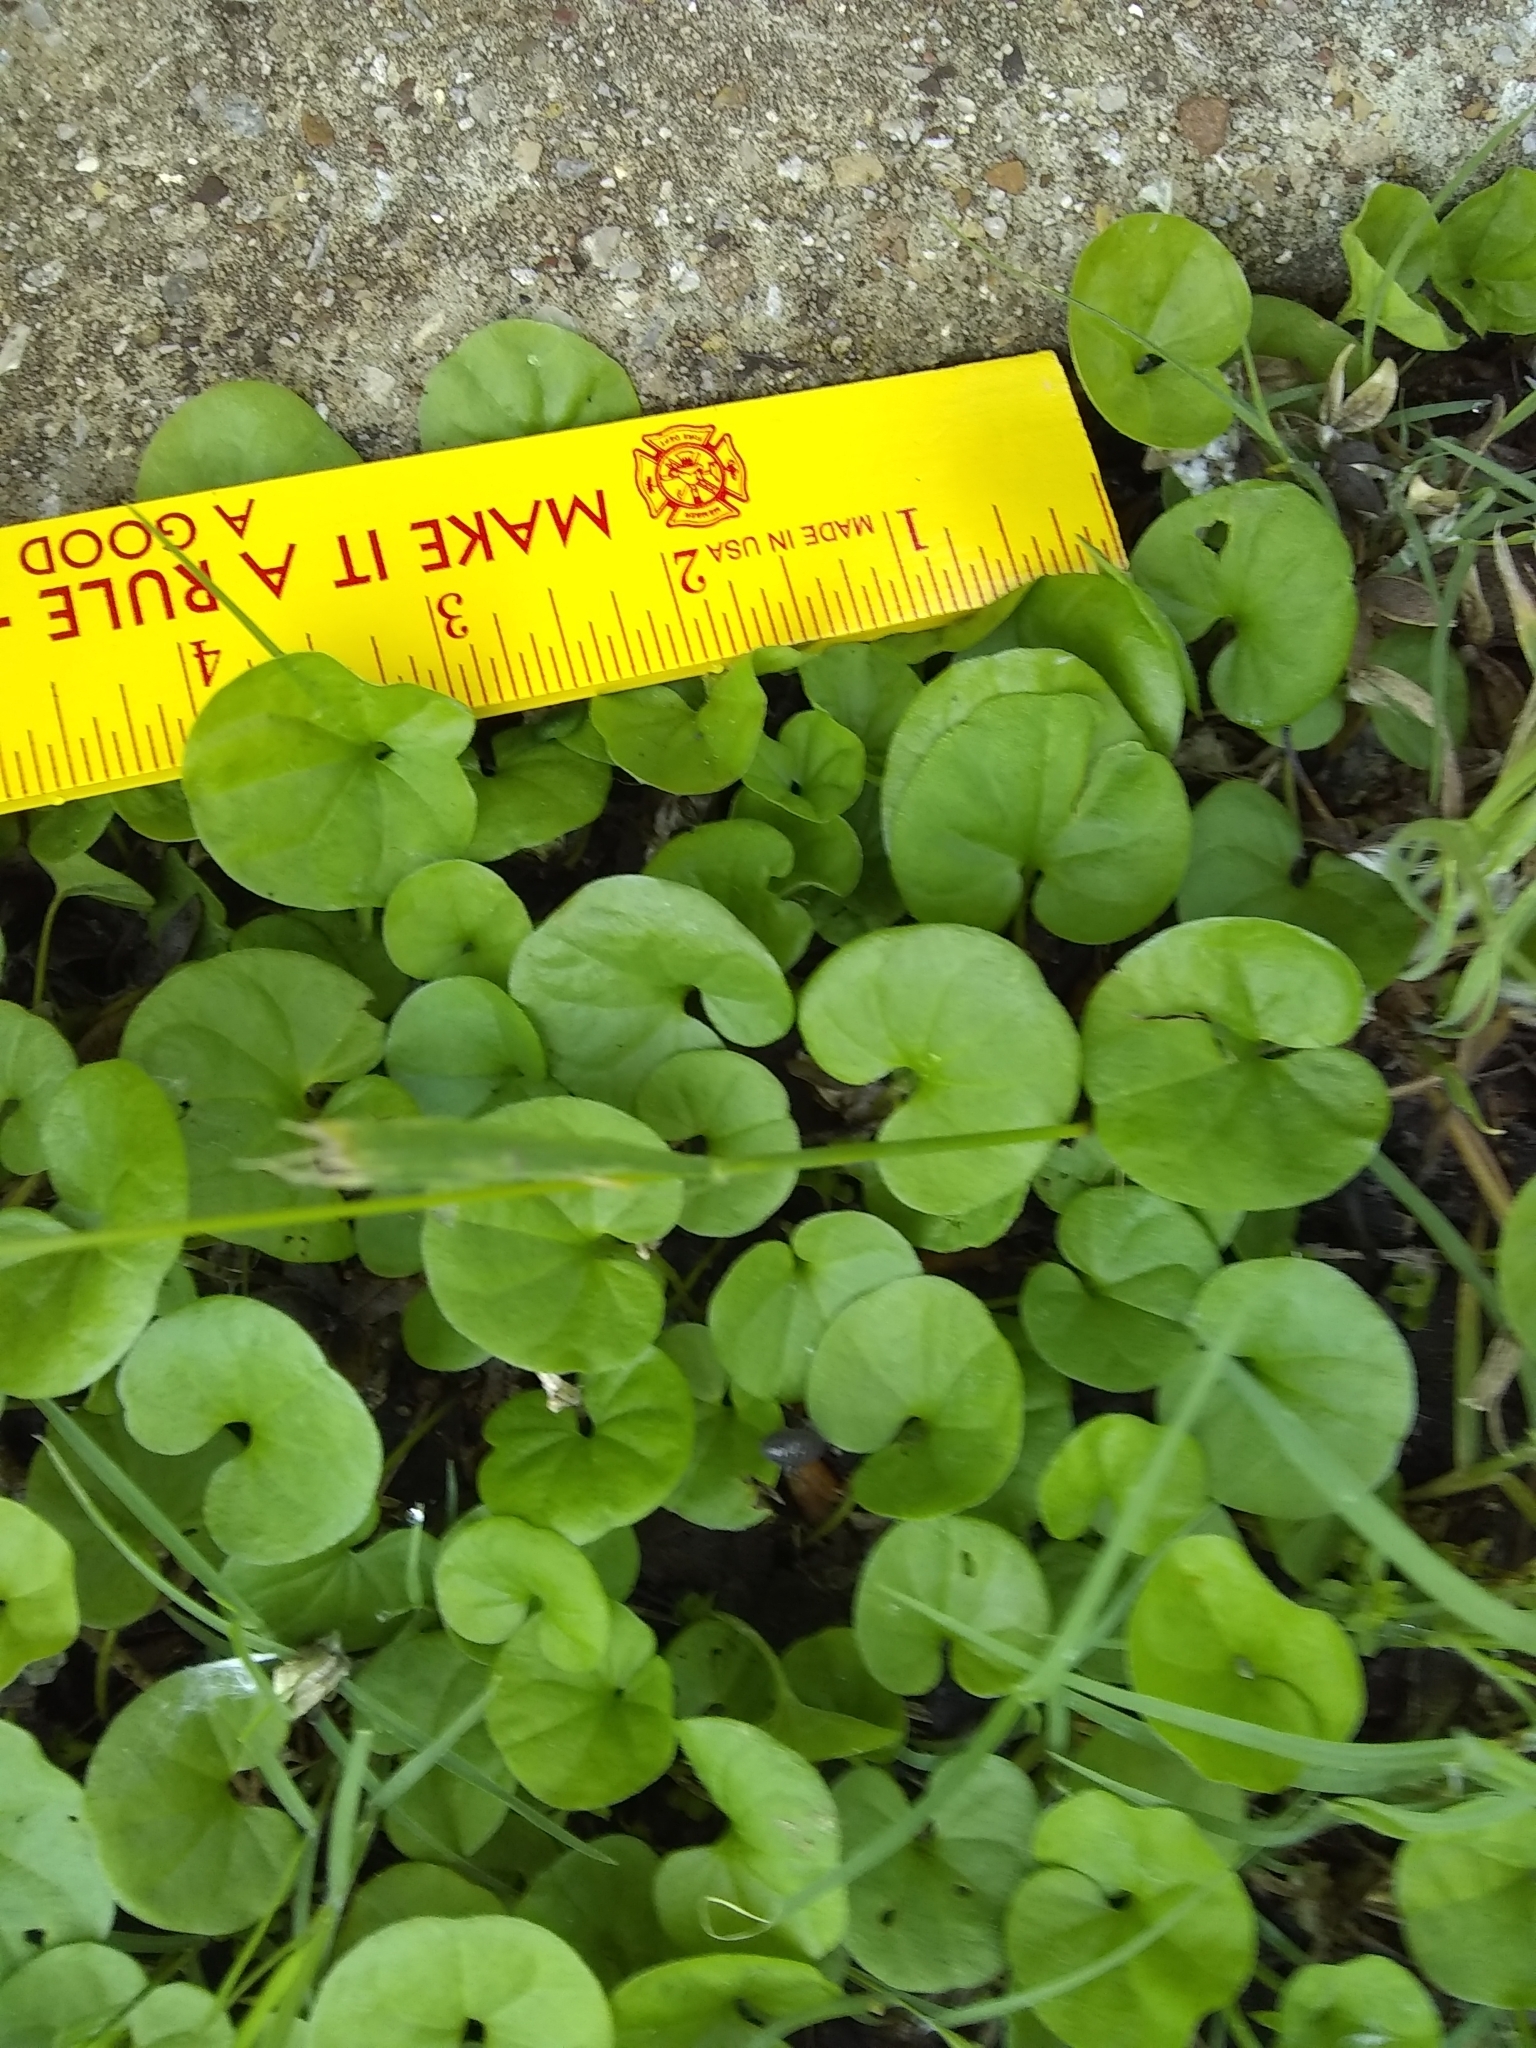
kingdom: Plantae
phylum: Tracheophyta
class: Magnoliopsida
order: Solanales
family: Convolvulaceae
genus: Dichondra
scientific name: Dichondra carolinensis
